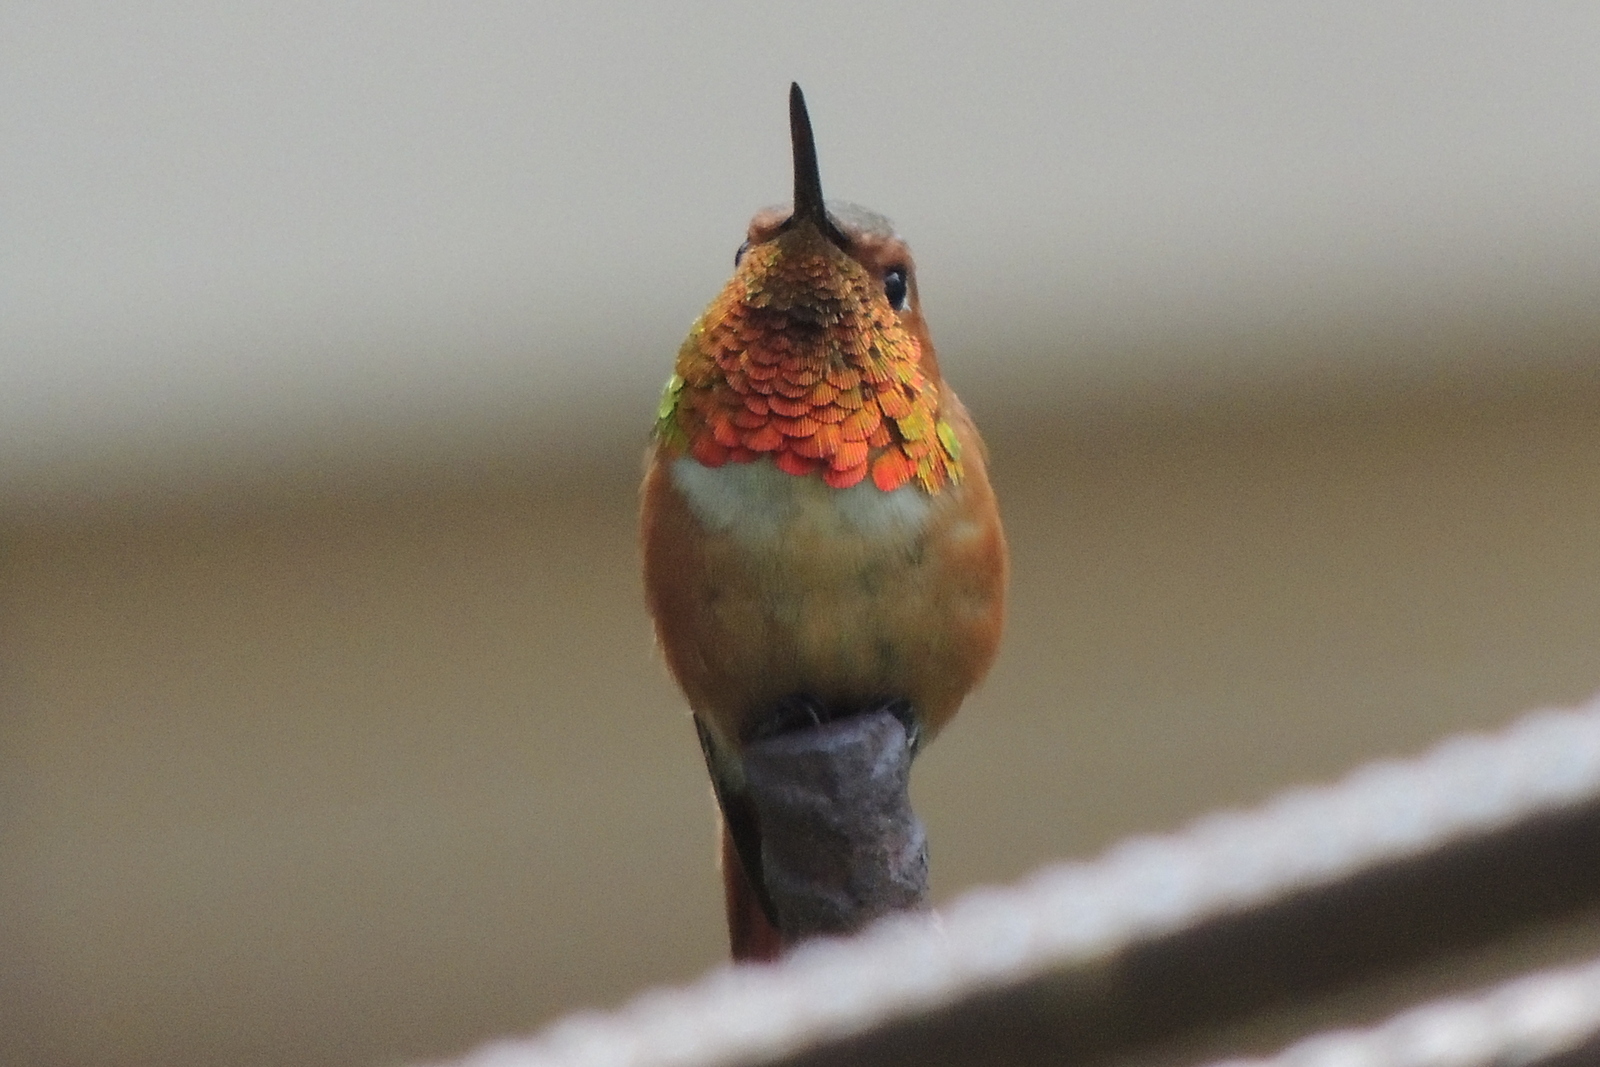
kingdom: Animalia
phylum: Chordata
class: Aves
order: Apodiformes
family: Trochilidae
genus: Selasphorus
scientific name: Selasphorus sasin
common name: Allen's hummingbird
